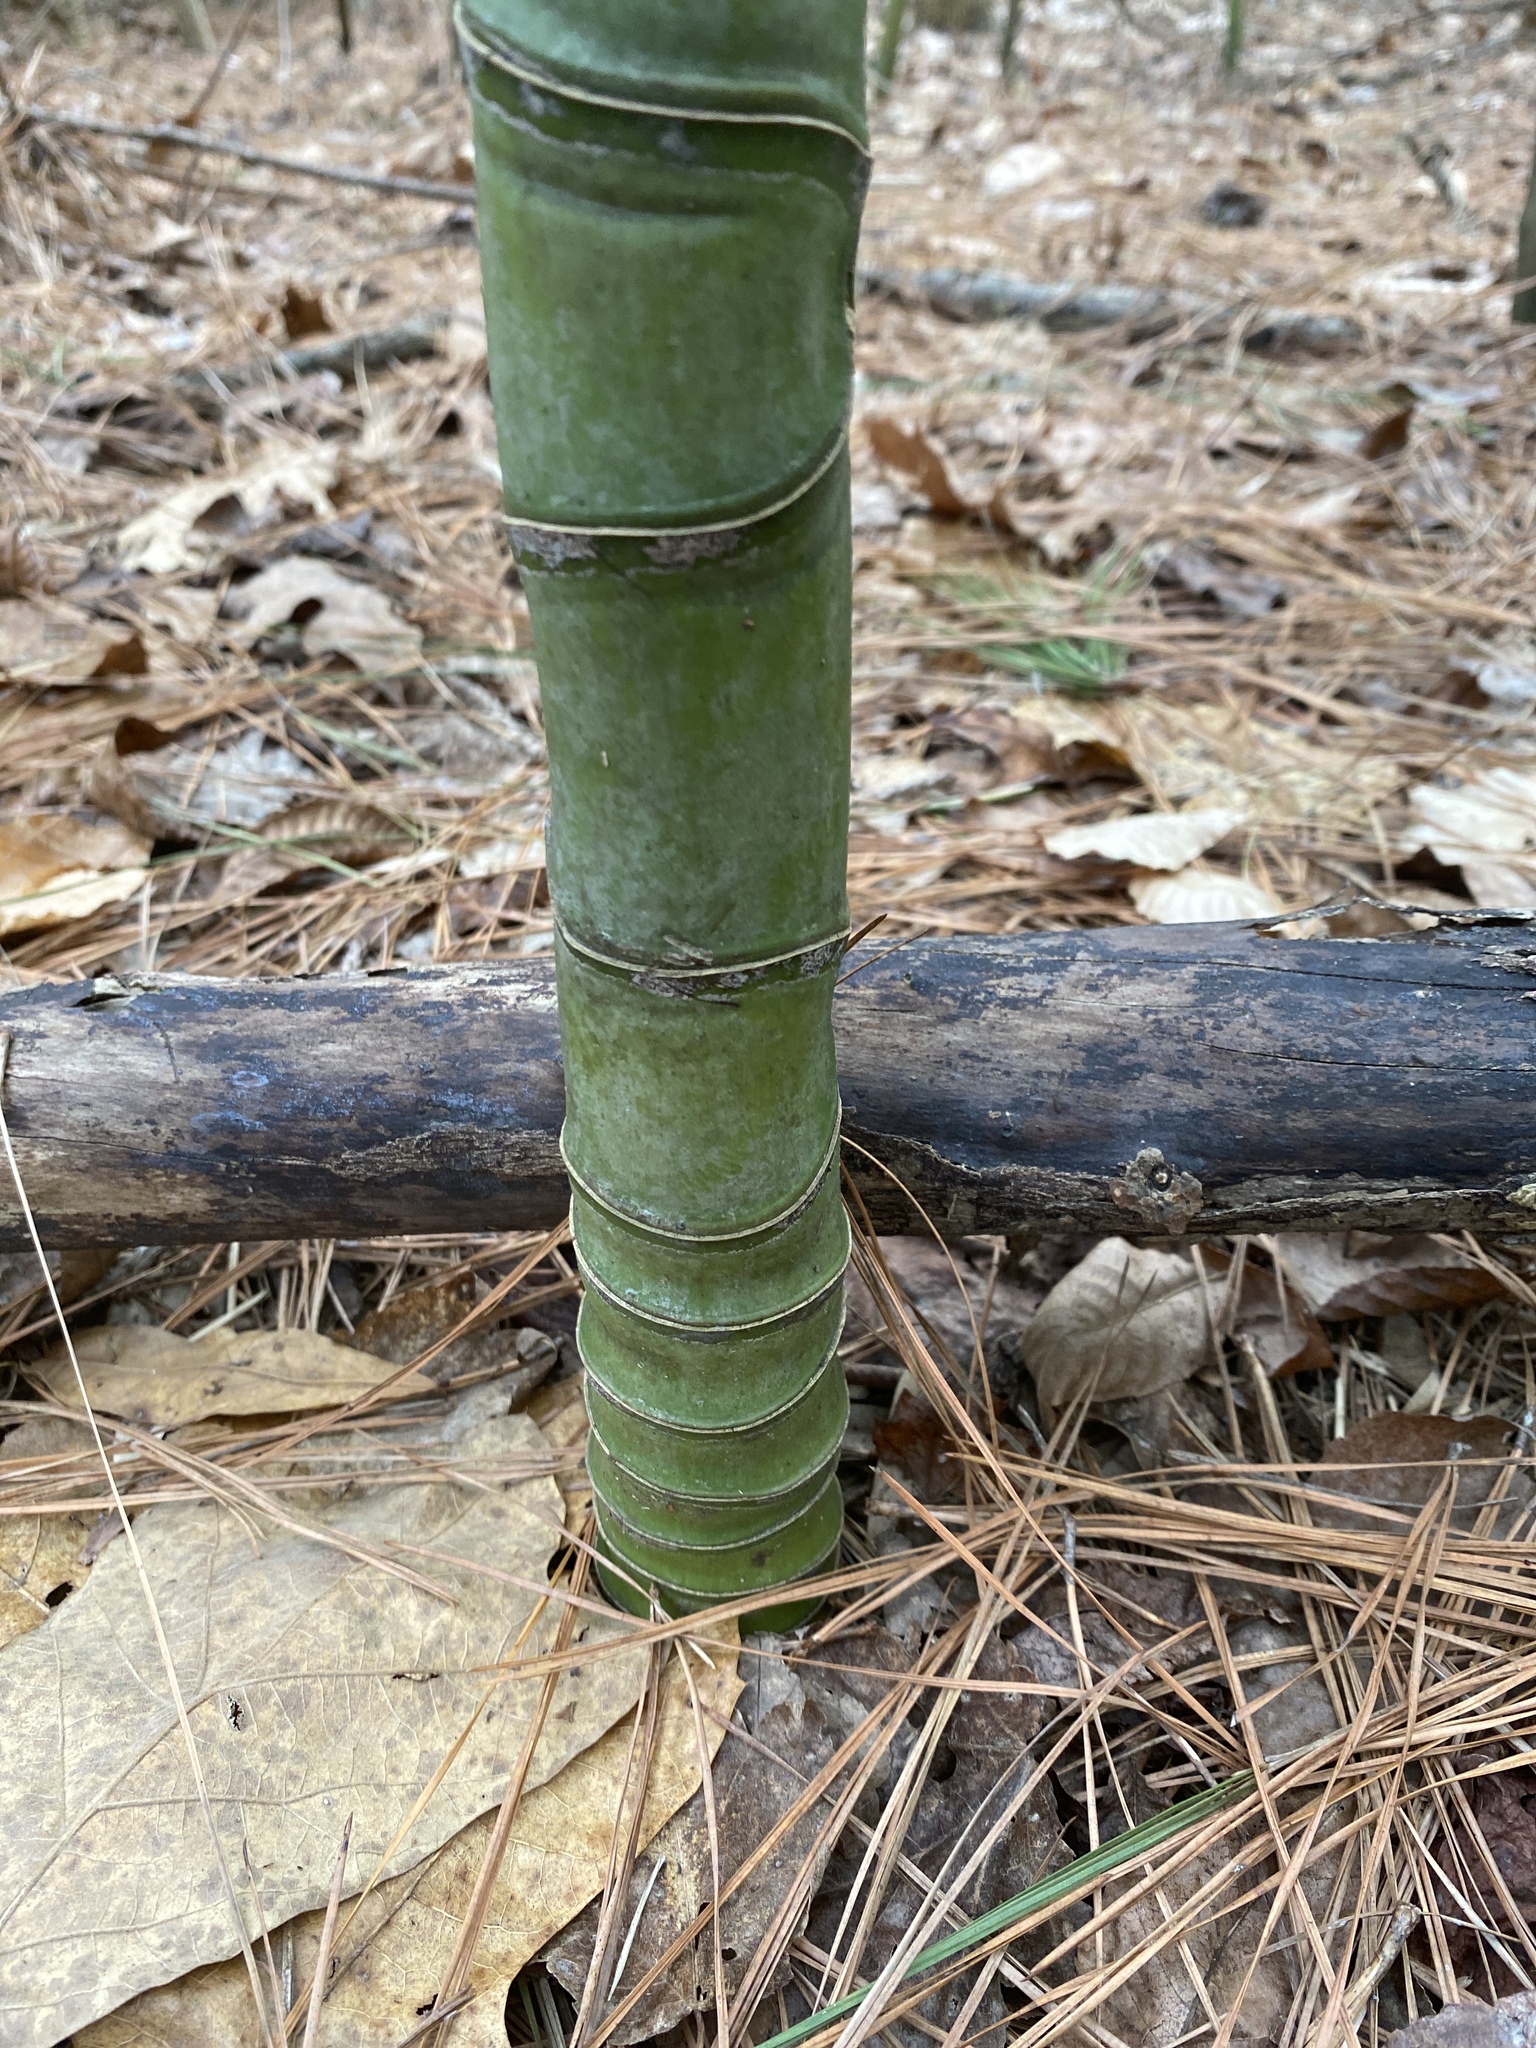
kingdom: Plantae
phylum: Tracheophyta
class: Liliopsida
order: Poales
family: Poaceae
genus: Phyllostachys
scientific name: Phyllostachys aurea
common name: Golden bamboo
